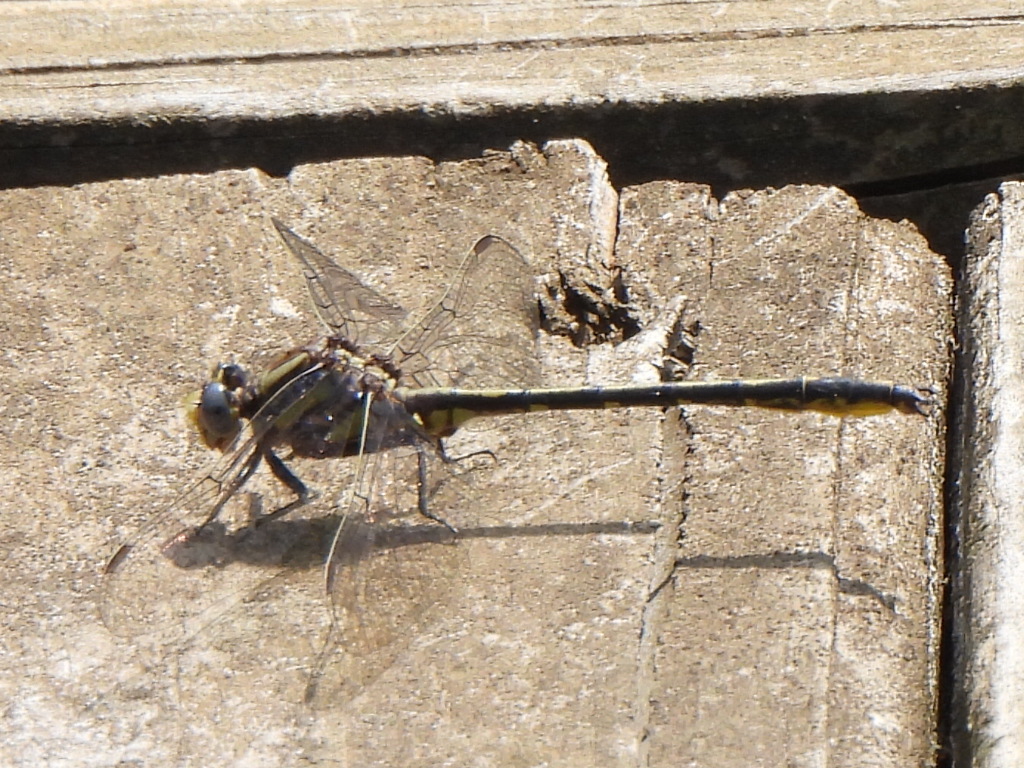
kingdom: Animalia
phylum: Arthropoda
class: Insecta
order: Odonata
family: Gomphidae
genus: Phanogomphus
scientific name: Phanogomphus oklahomensis
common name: Oklahoma clubtail
